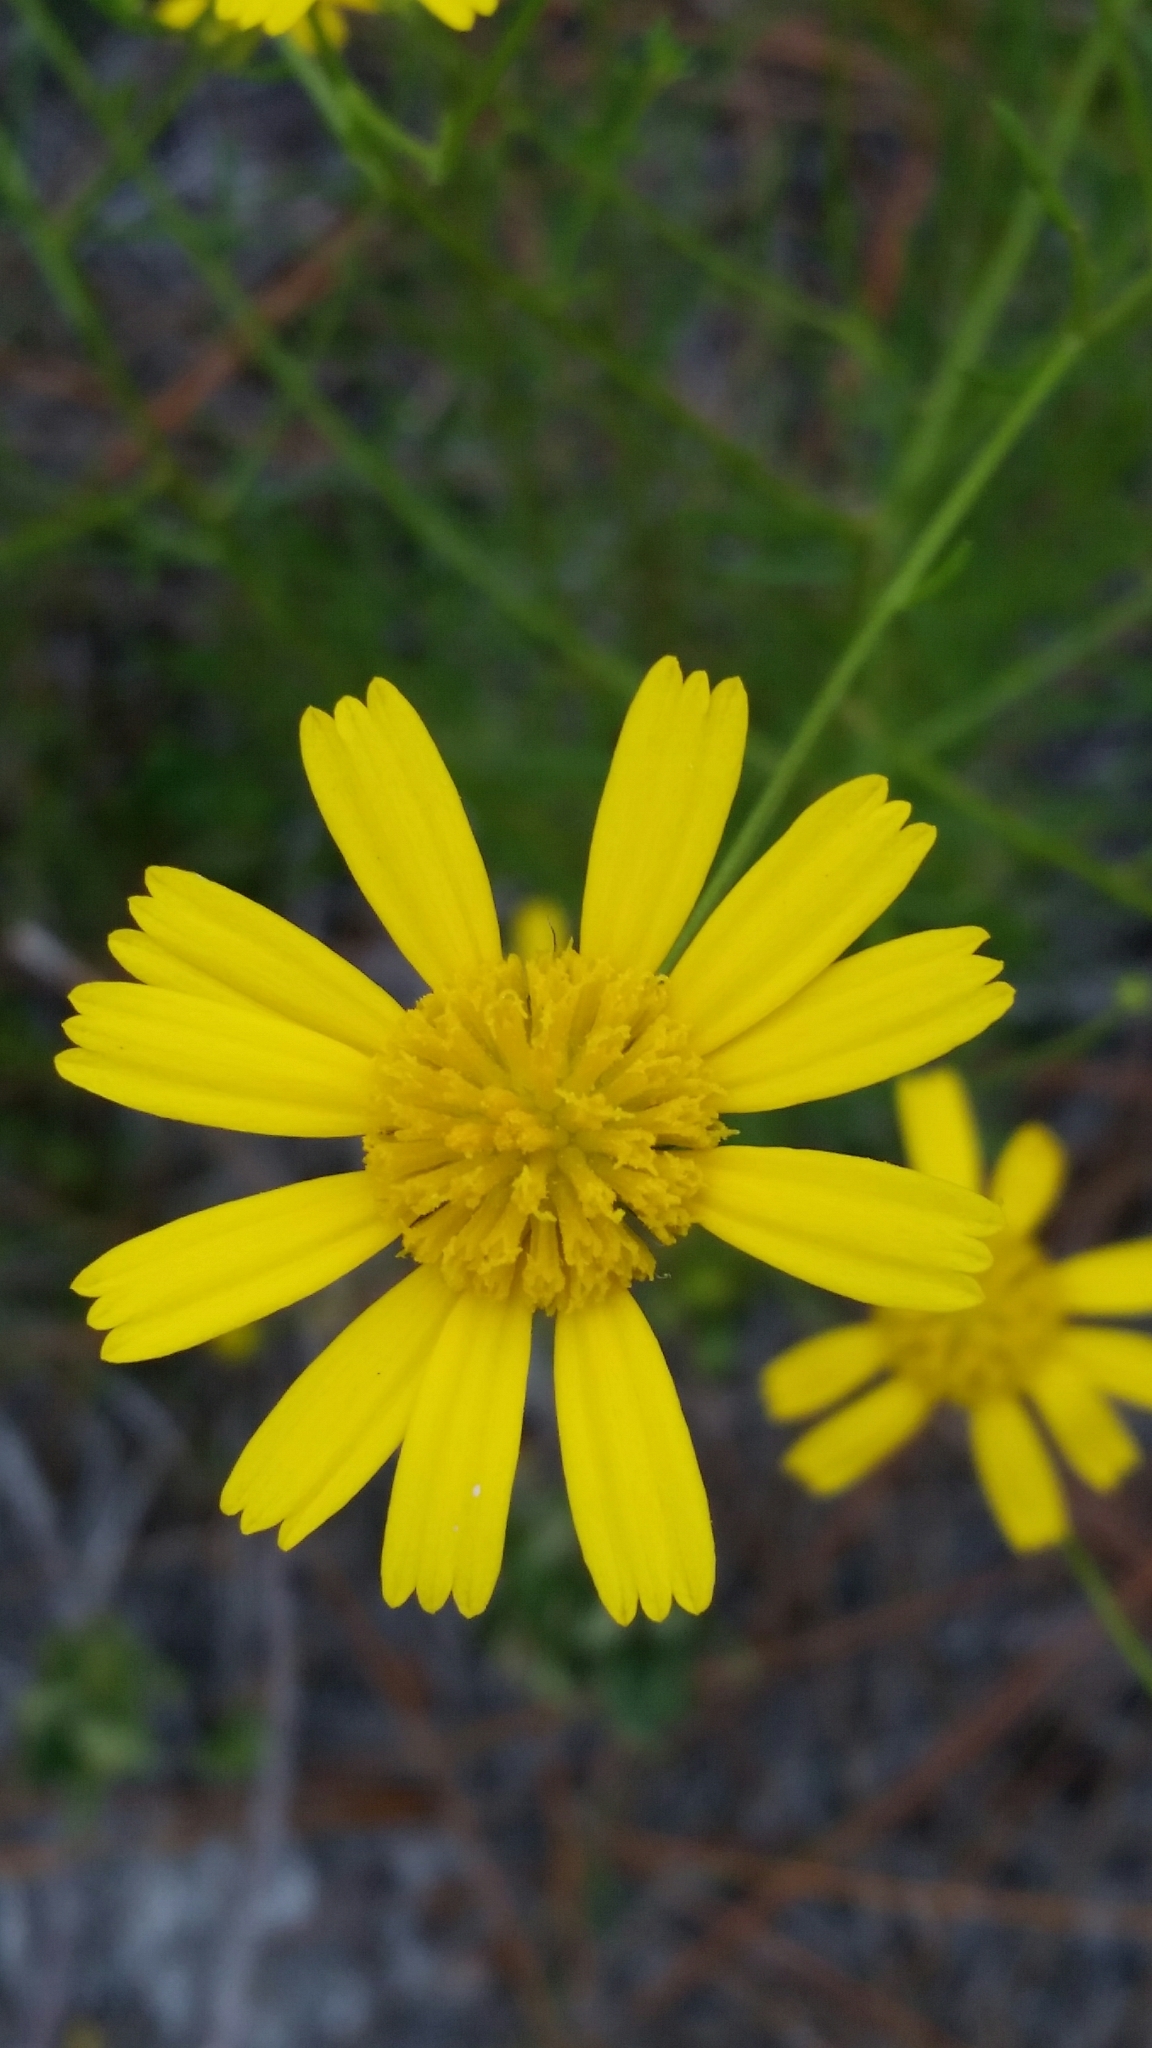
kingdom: Plantae
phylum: Tracheophyta
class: Magnoliopsida
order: Asterales
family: Asteraceae
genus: Balduina
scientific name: Balduina angustifolia
